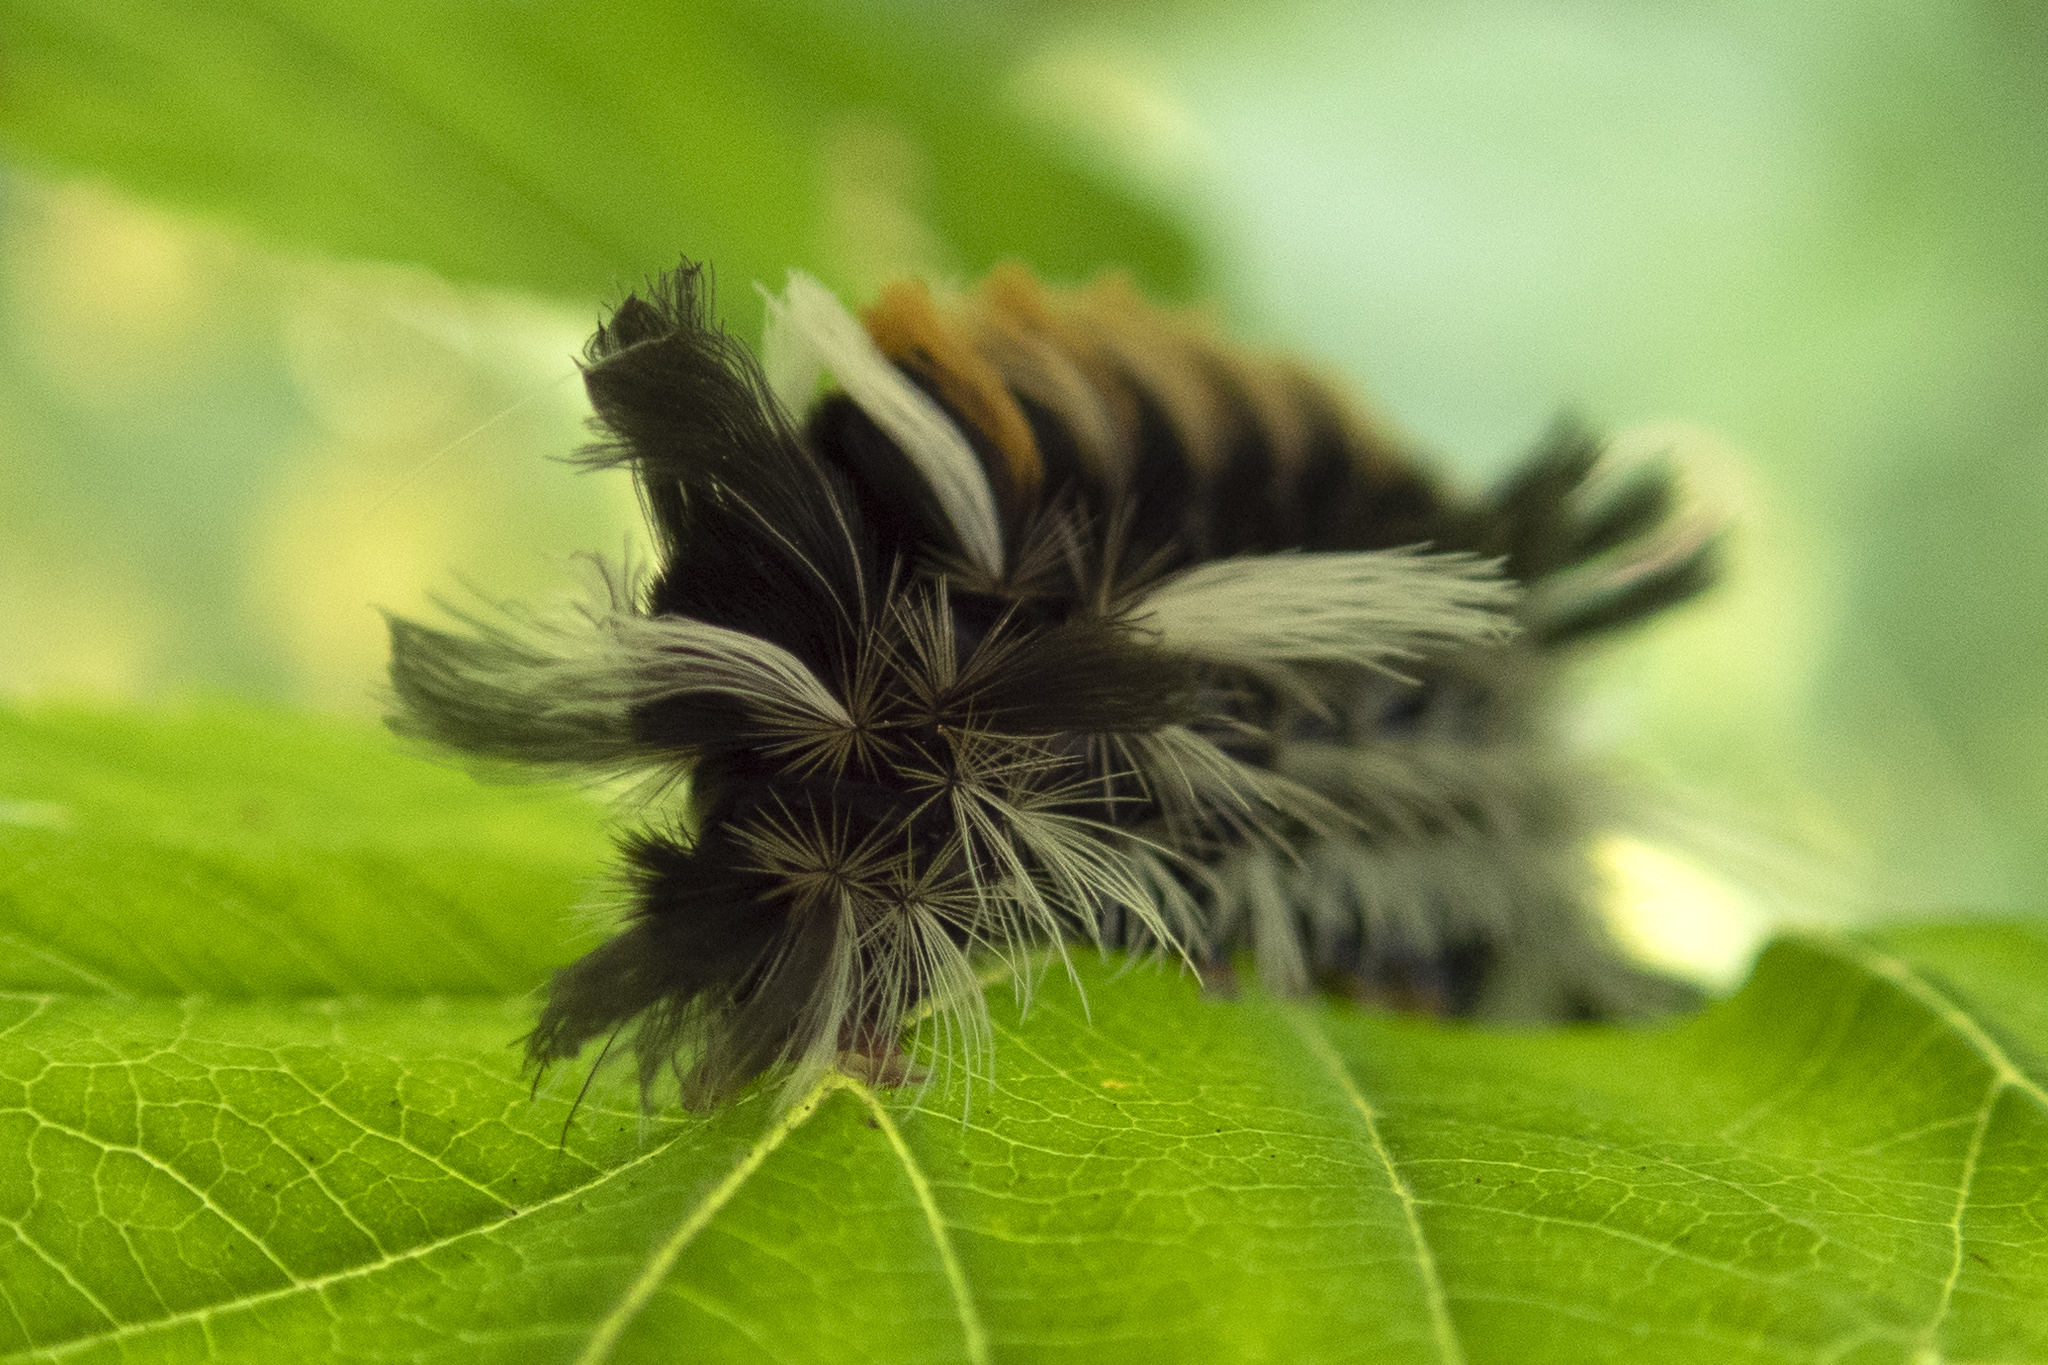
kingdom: Animalia
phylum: Arthropoda
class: Insecta
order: Lepidoptera
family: Erebidae
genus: Euchaetes
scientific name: Euchaetes egle
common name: Milkweed tussock moth
